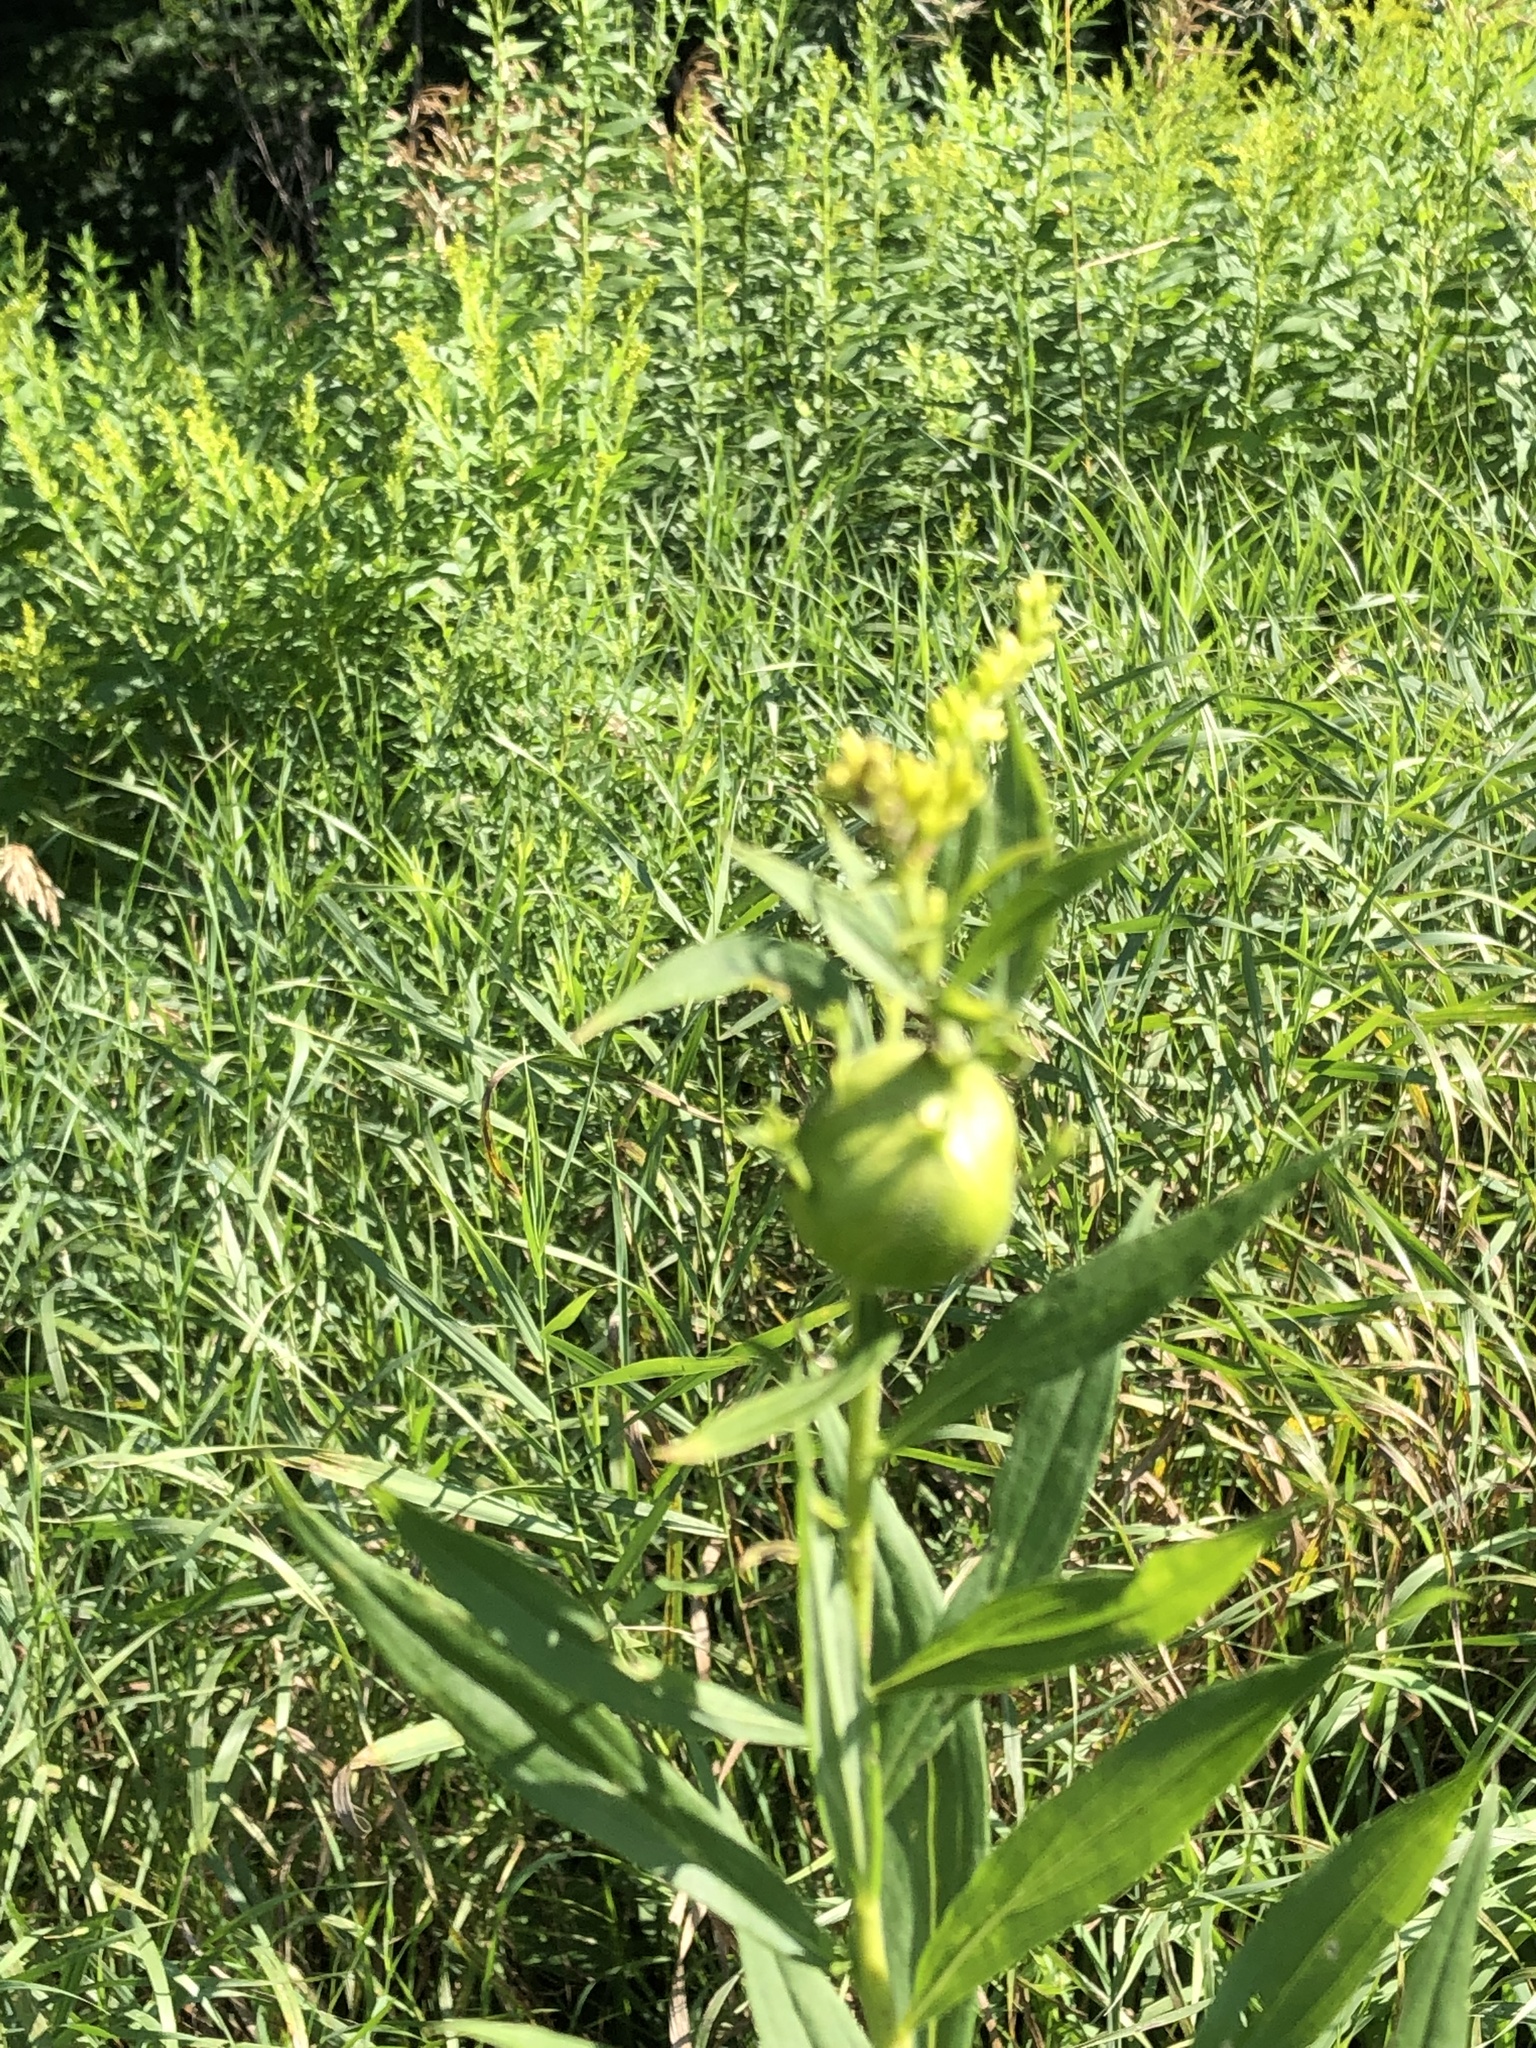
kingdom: Animalia
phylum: Arthropoda
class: Insecta
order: Diptera
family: Tephritidae
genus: Eurosta
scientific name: Eurosta solidaginis
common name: Goldenrod gall fly
